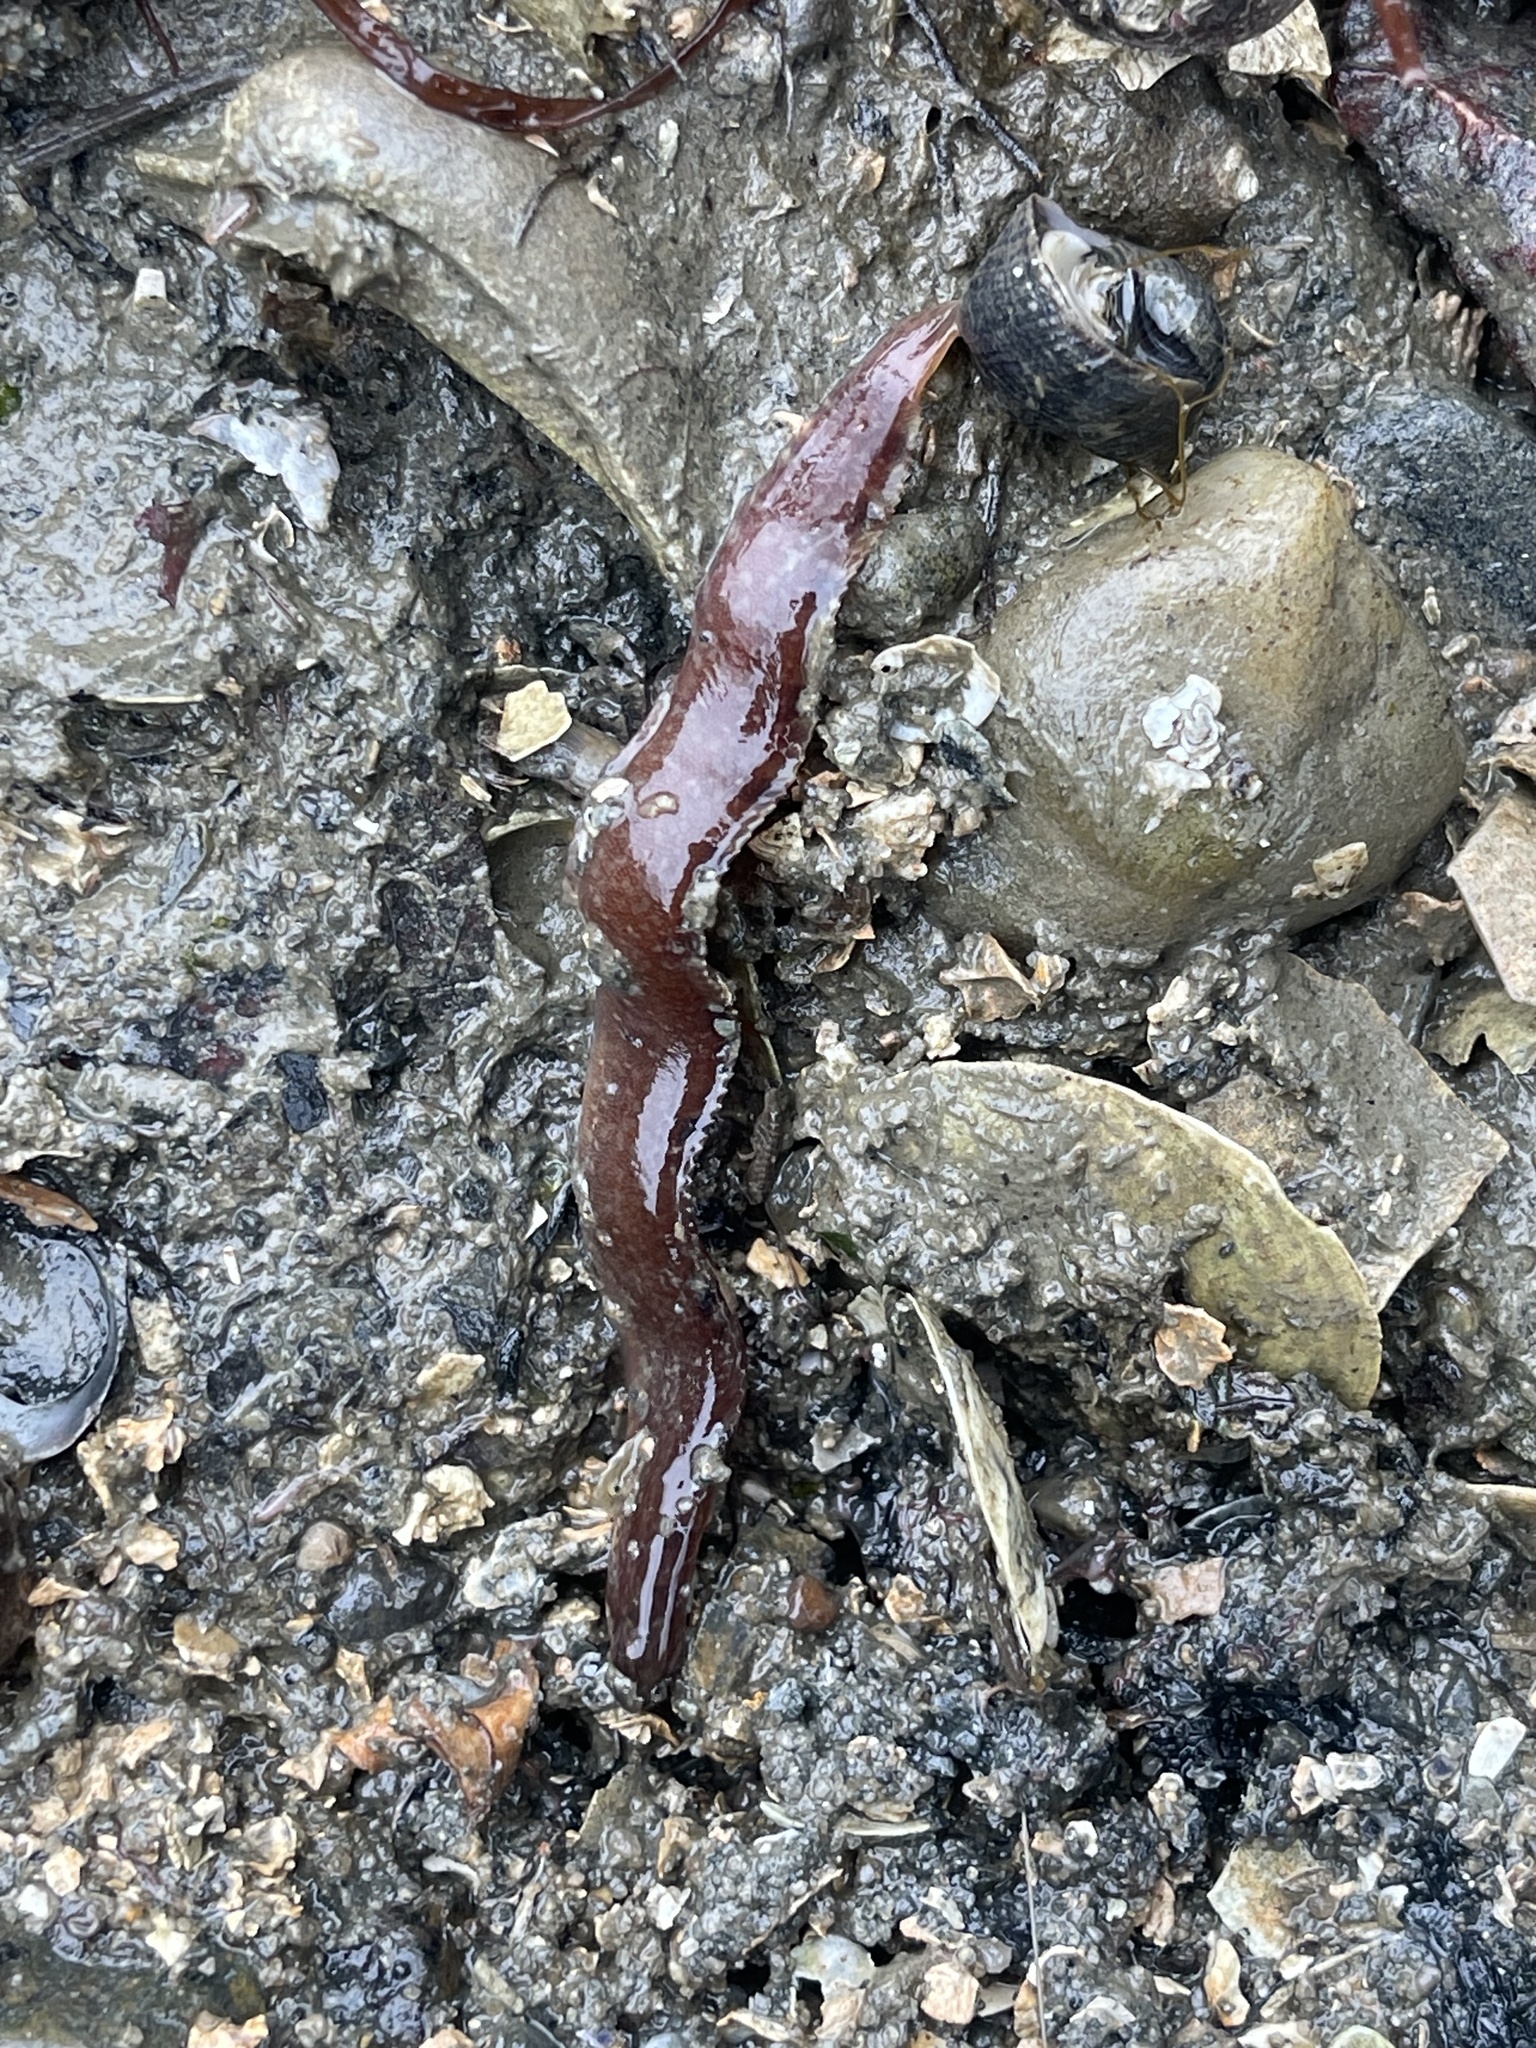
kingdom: Animalia
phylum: Chordata
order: Perciformes
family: Pholidae
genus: Pholis
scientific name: Pholis gunnellus
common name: Butterfish
